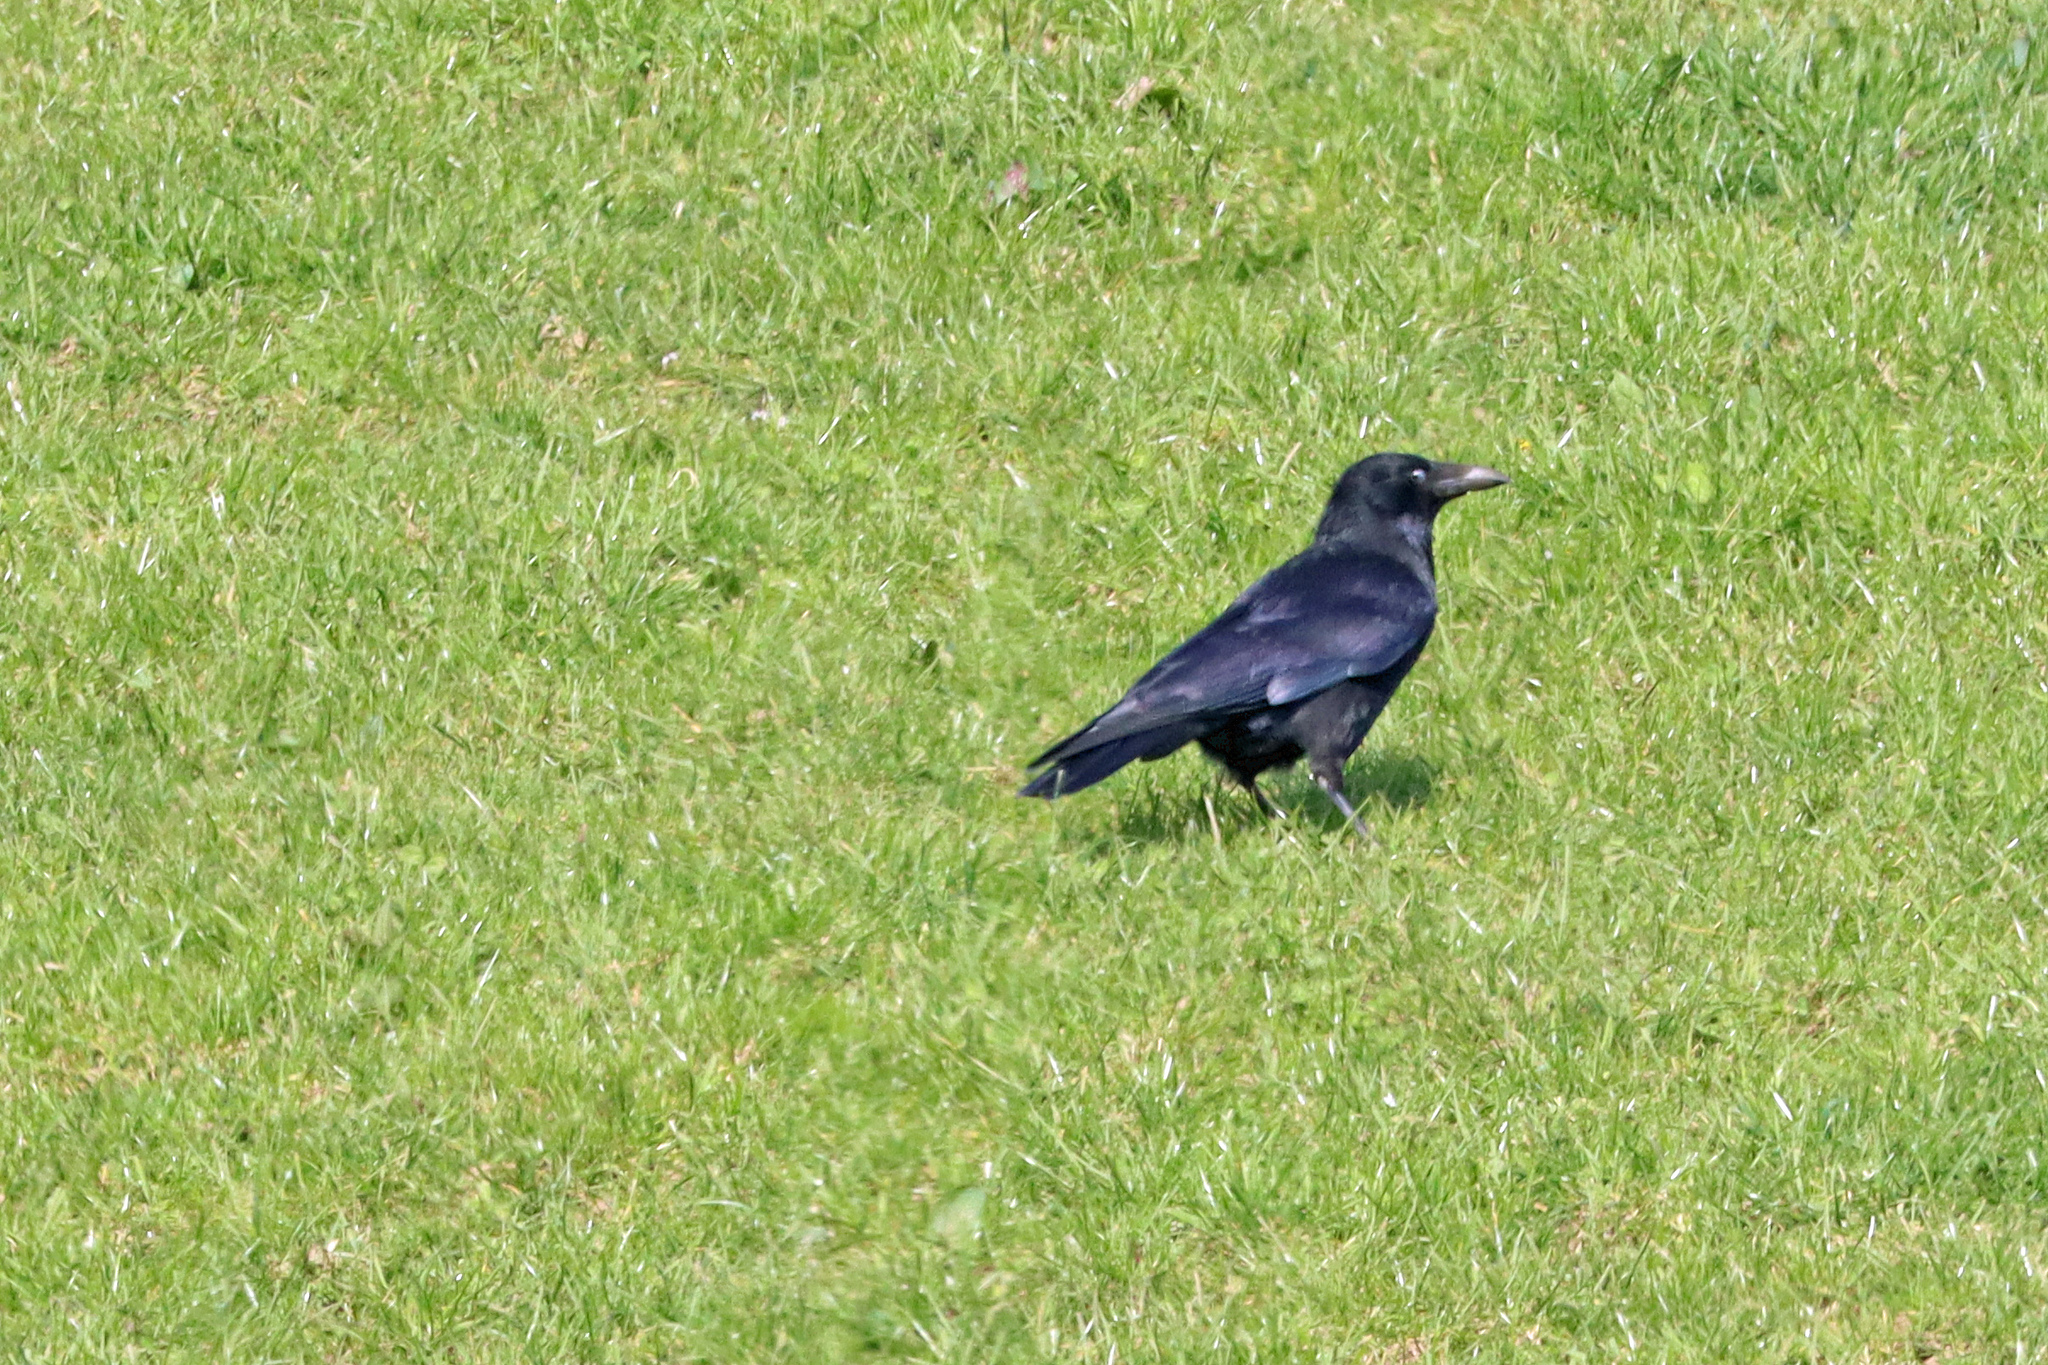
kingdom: Animalia
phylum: Chordata
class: Aves
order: Passeriformes
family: Corvidae
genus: Corvus
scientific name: Corvus corone
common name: Carrion crow
